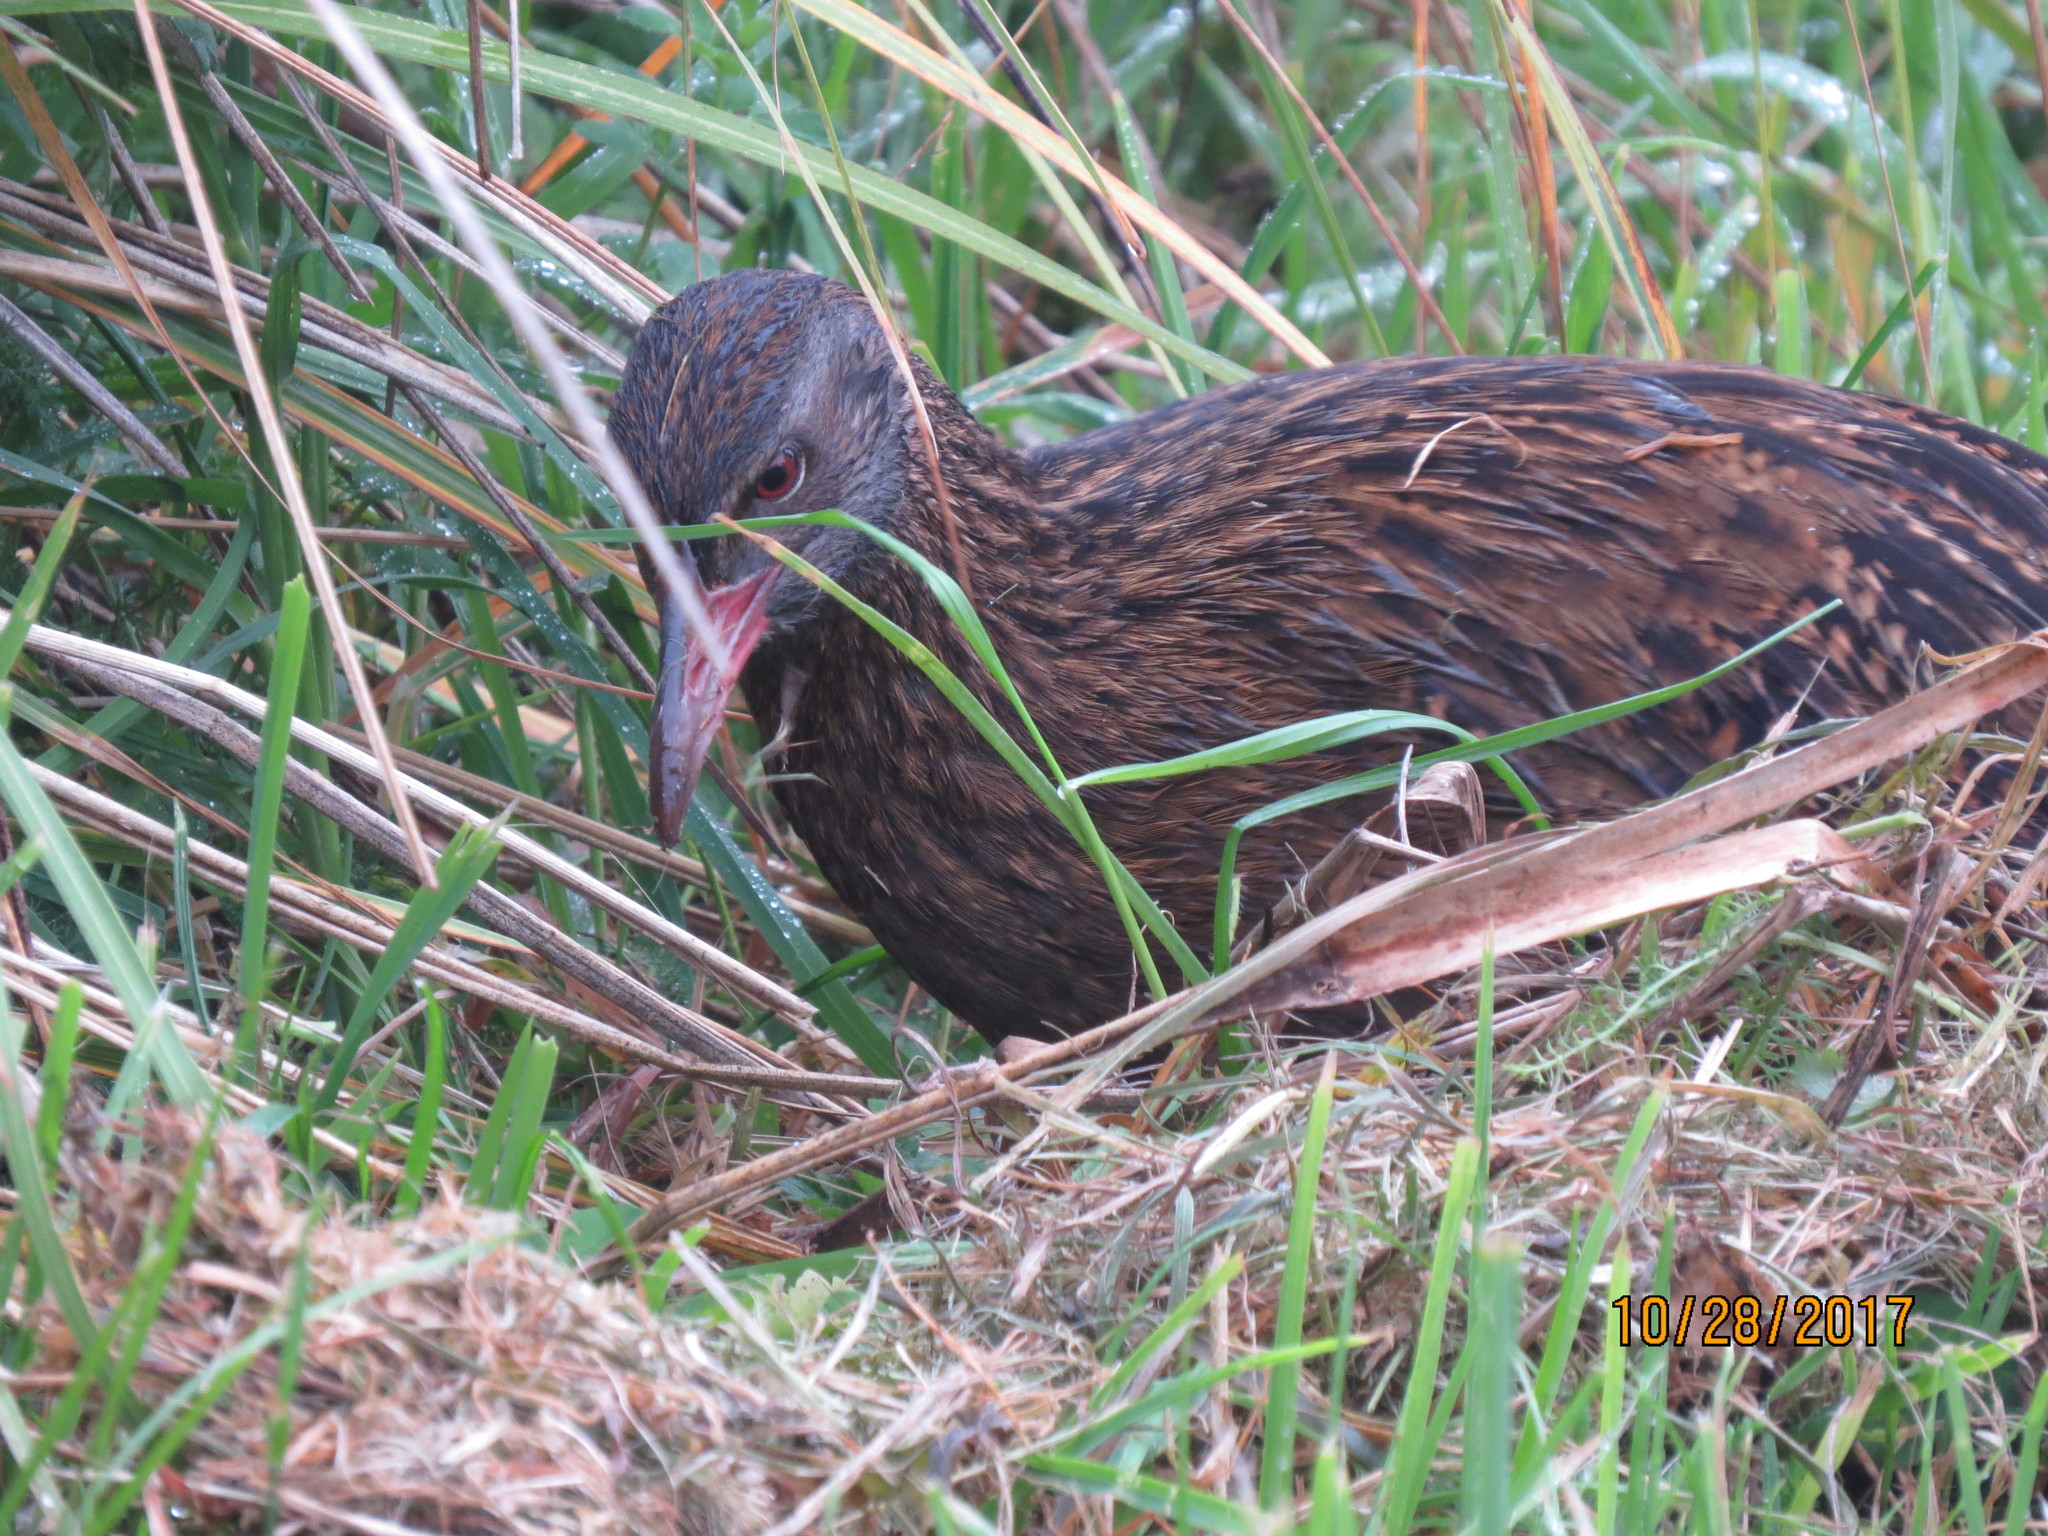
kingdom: Animalia
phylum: Chordata
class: Aves
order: Gruiformes
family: Rallidae
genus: Gallirallus
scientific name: Gallirallus australis
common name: Weka
